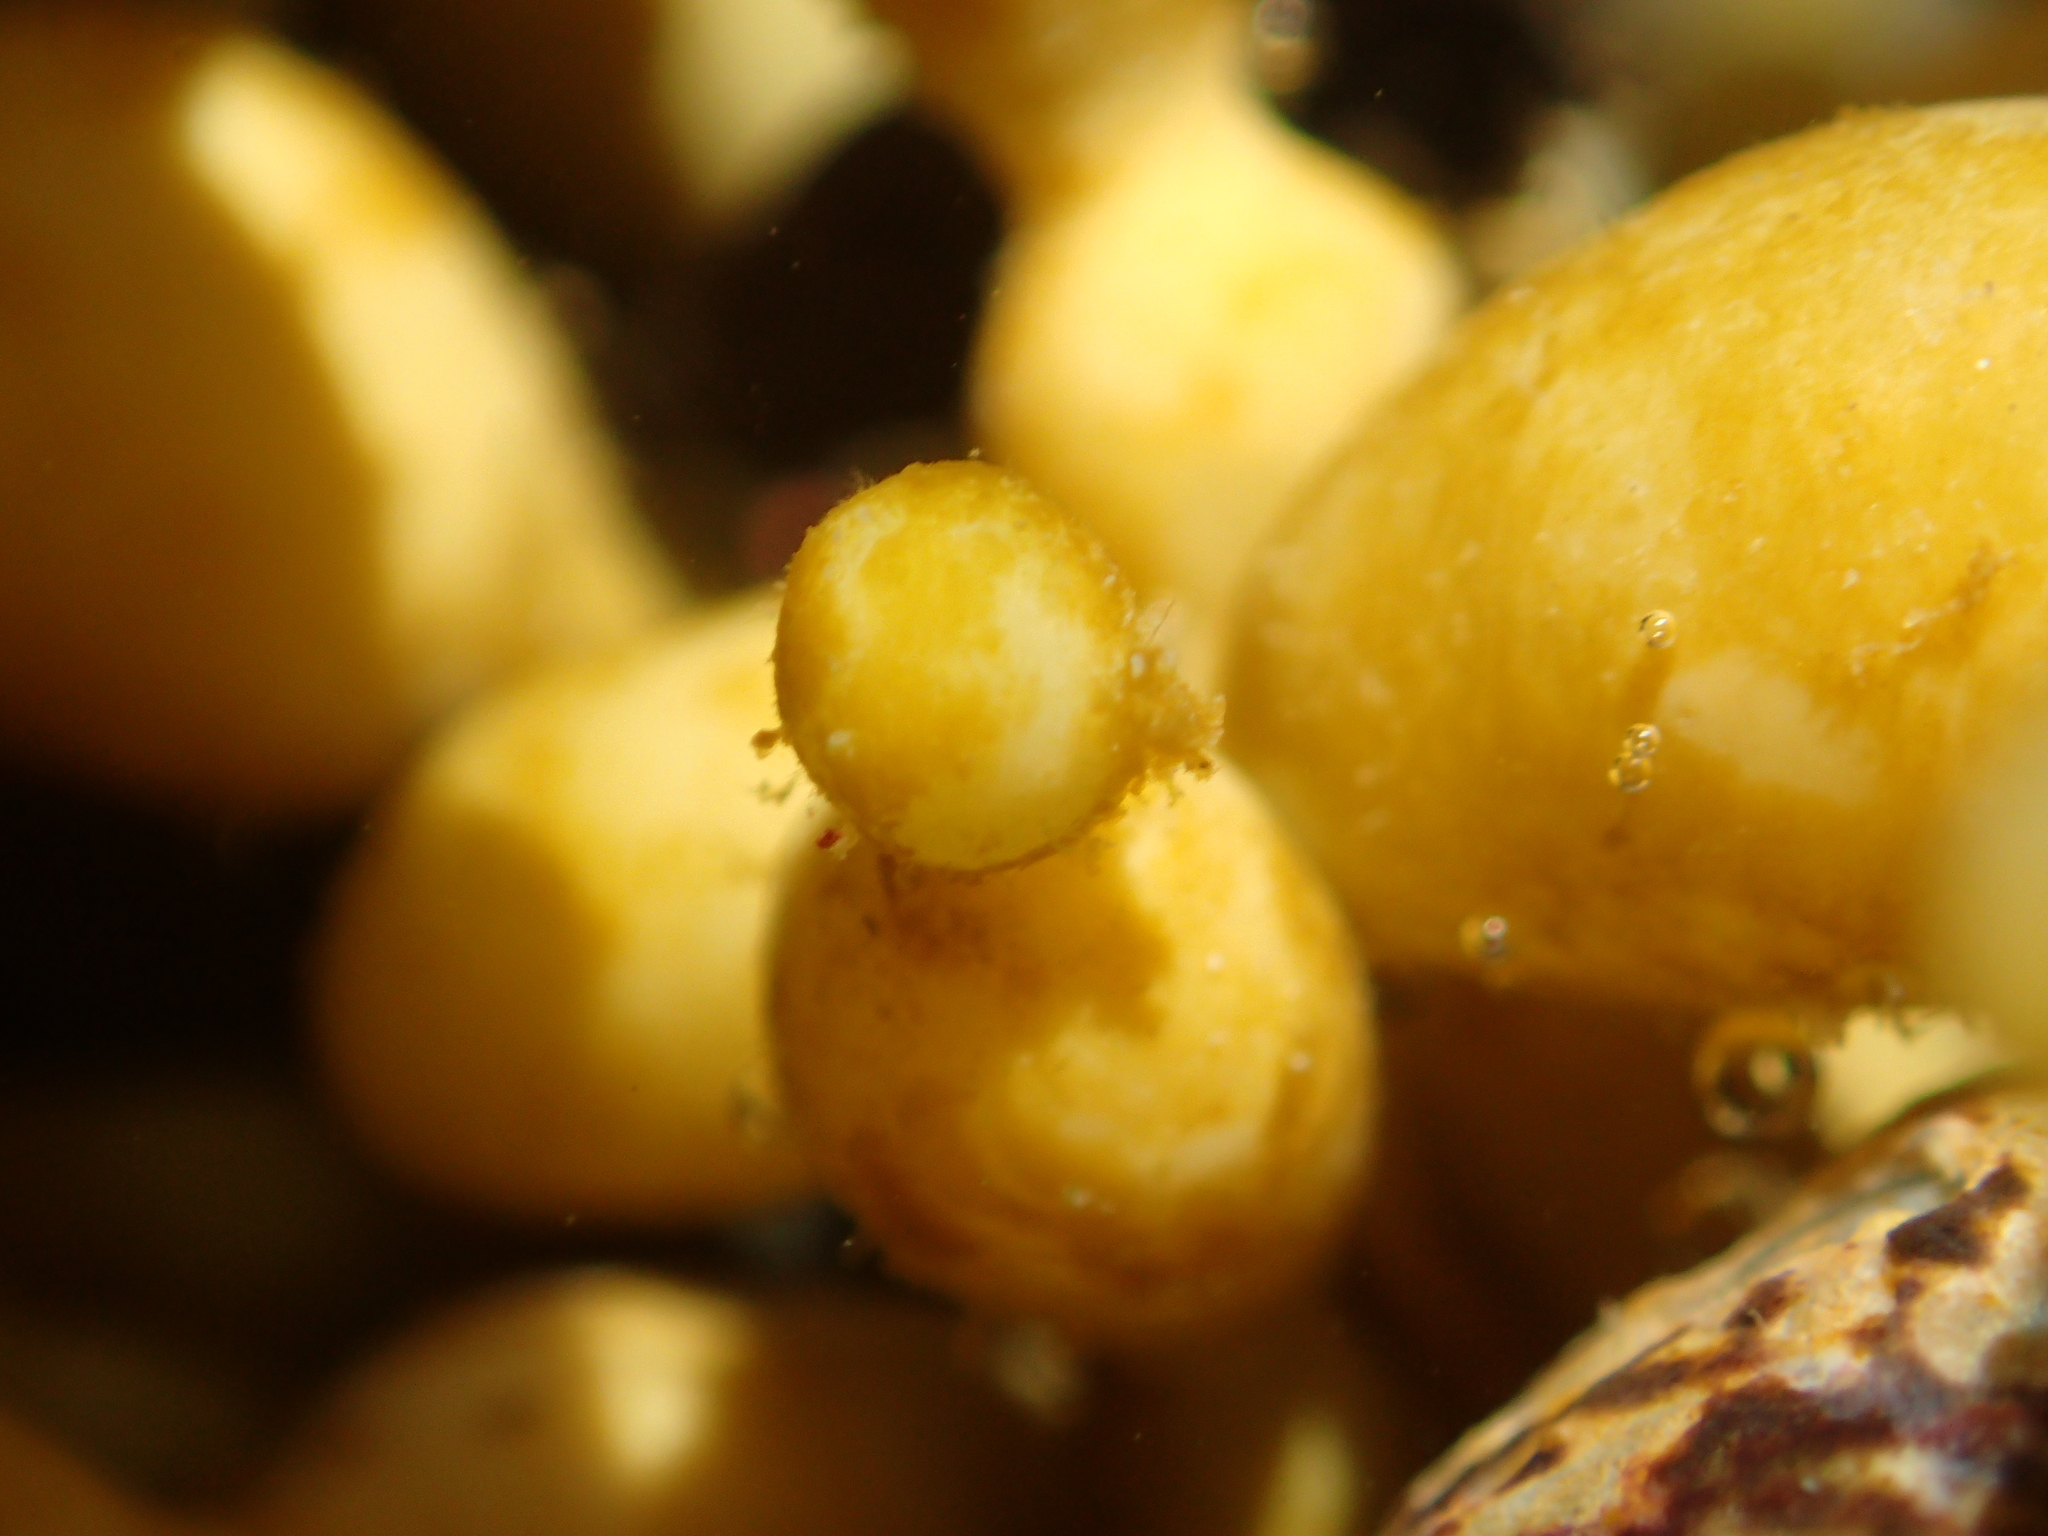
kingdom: Chromista
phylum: Ochrophyta
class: Phaeophyceae
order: Fucales
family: Hormosiraceae
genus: Hormosira
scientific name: Hormosira banksii
